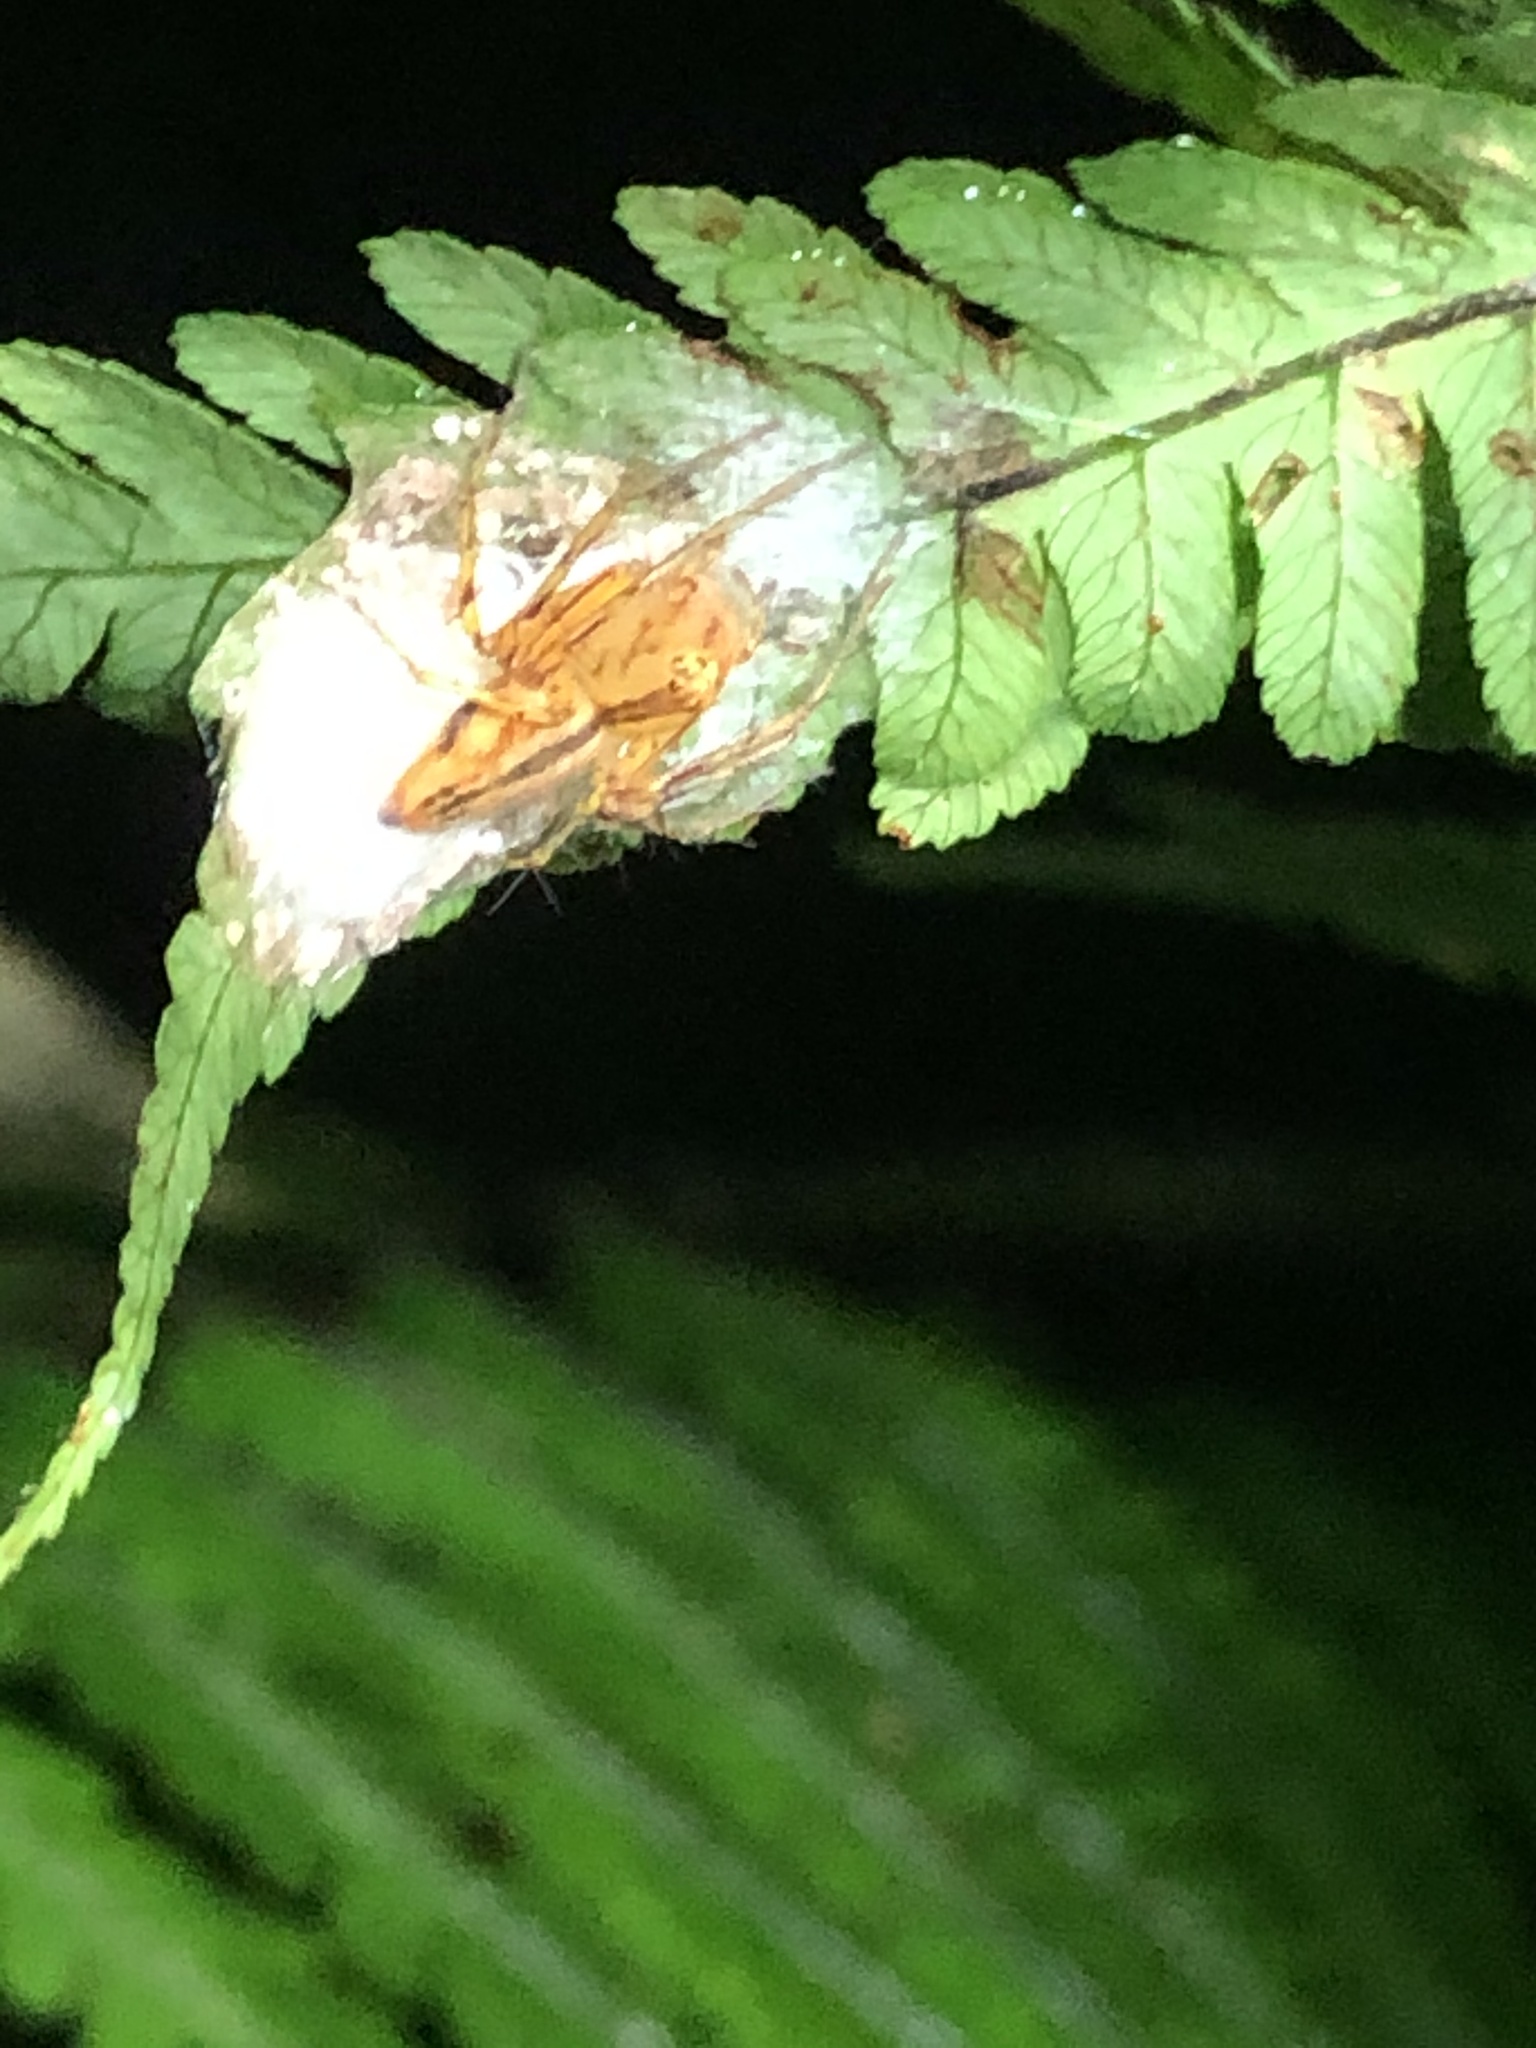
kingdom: Animalia
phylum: Arthropoda
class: Arachnida
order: Araneae
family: Oxyopidae
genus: Oxyopes
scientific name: Oxyopes incertus
